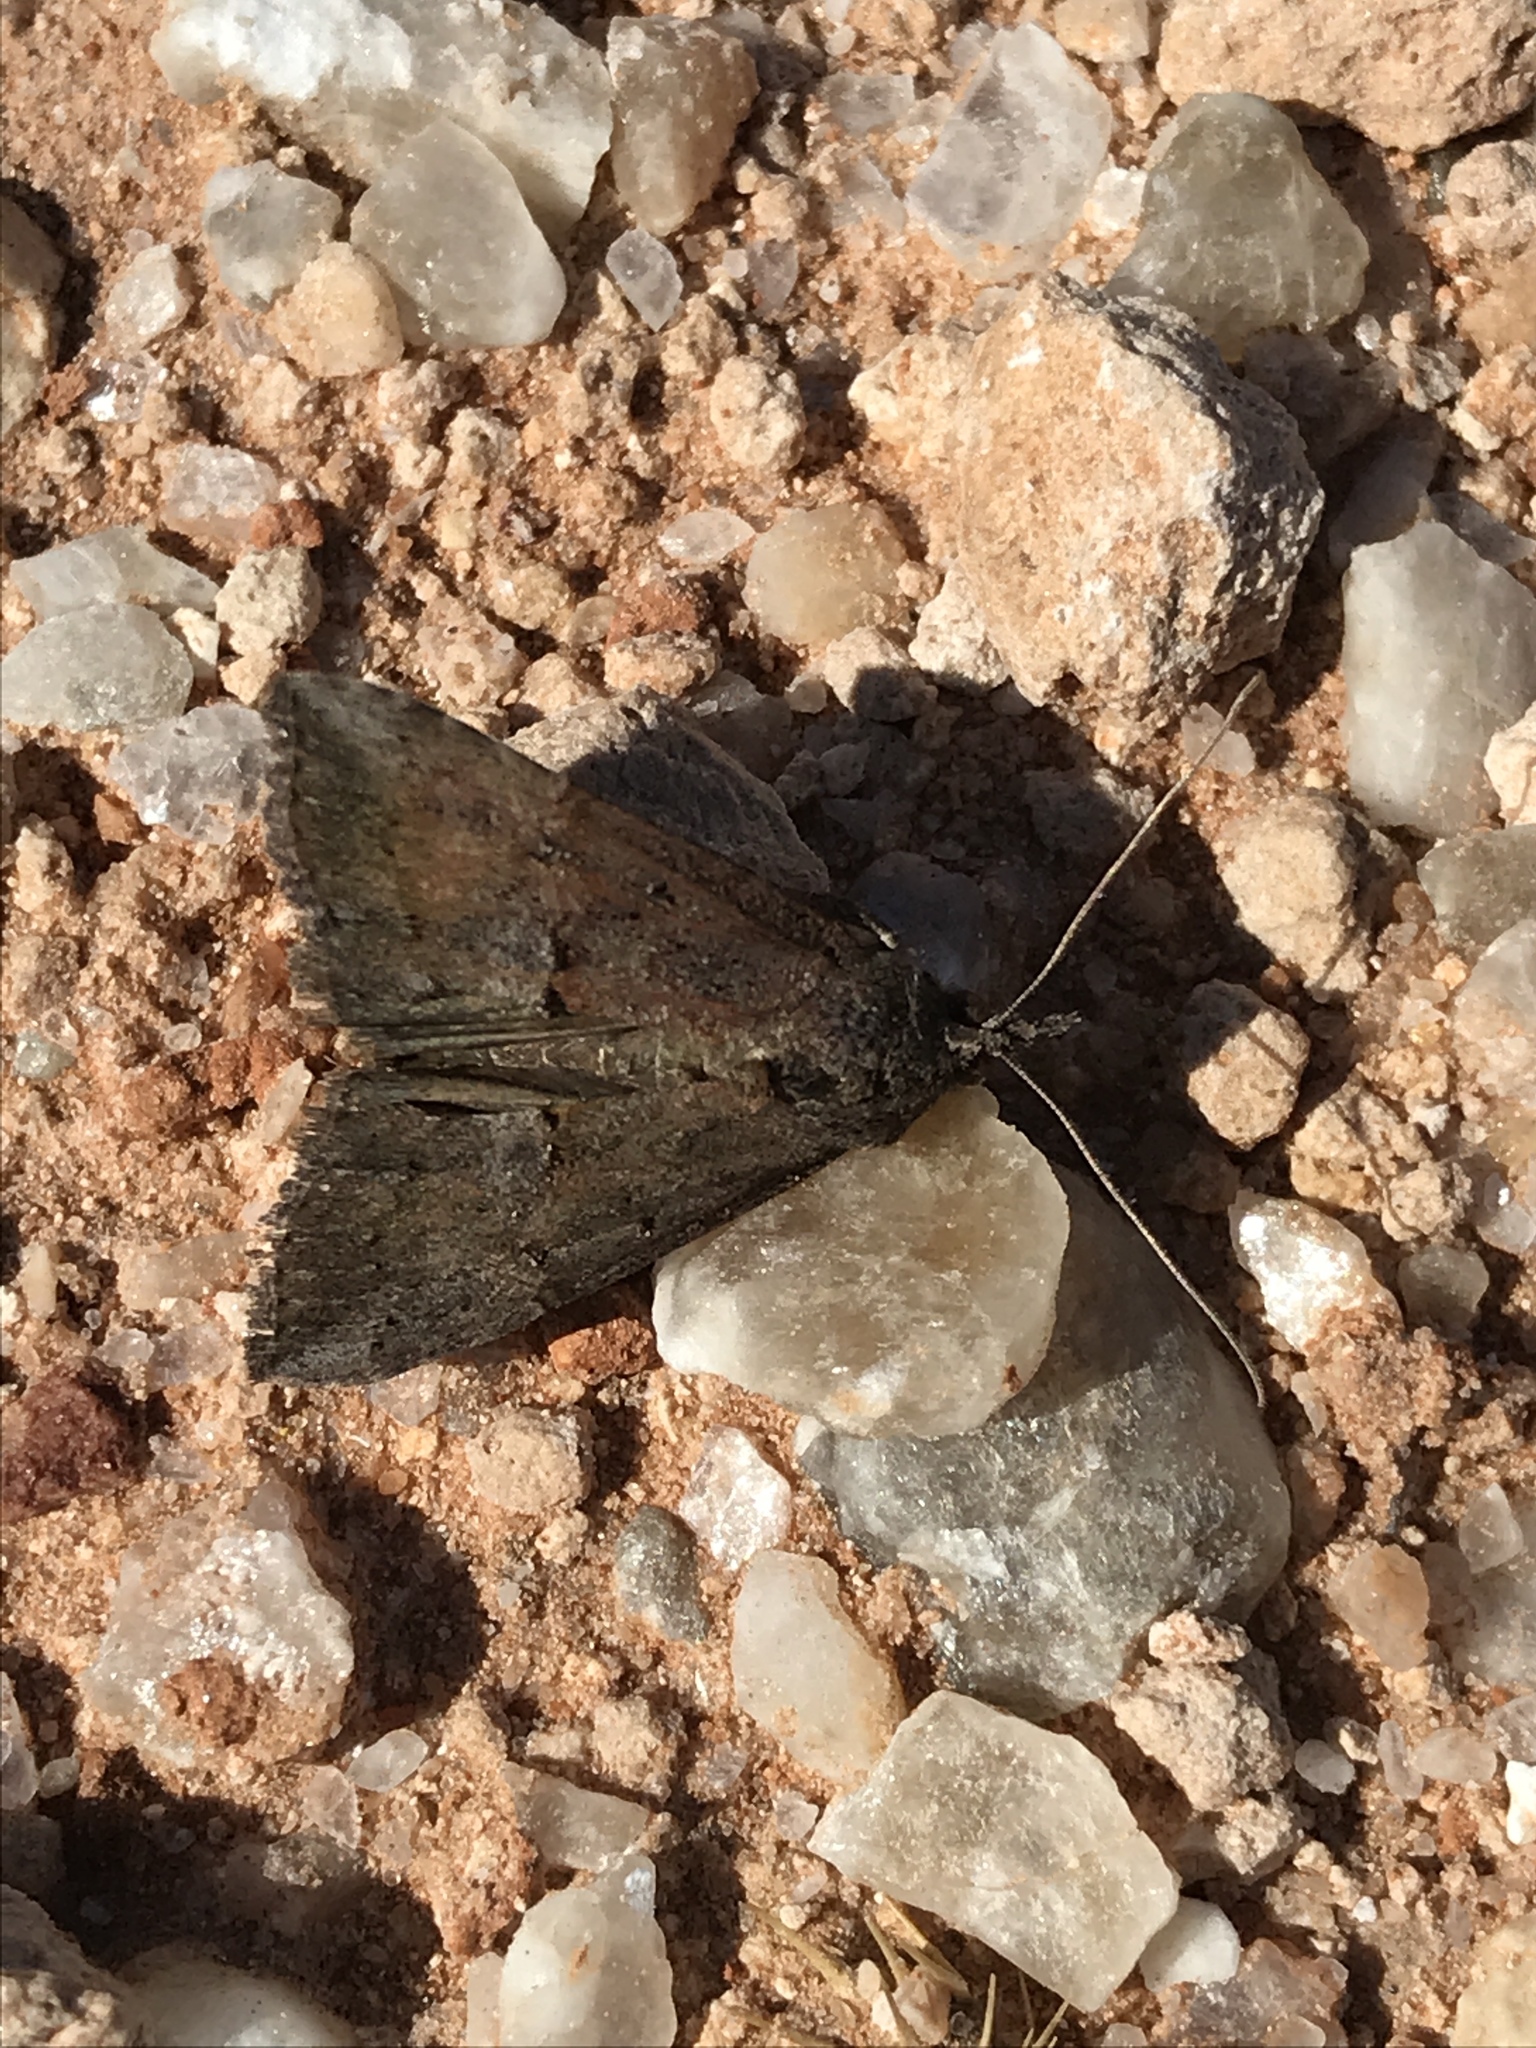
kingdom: Animalia
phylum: Arthropoda
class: Insecta
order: Lepidoptera
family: Erebidae
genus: Hypena
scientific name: Hypena scabra
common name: Green cloverworm
